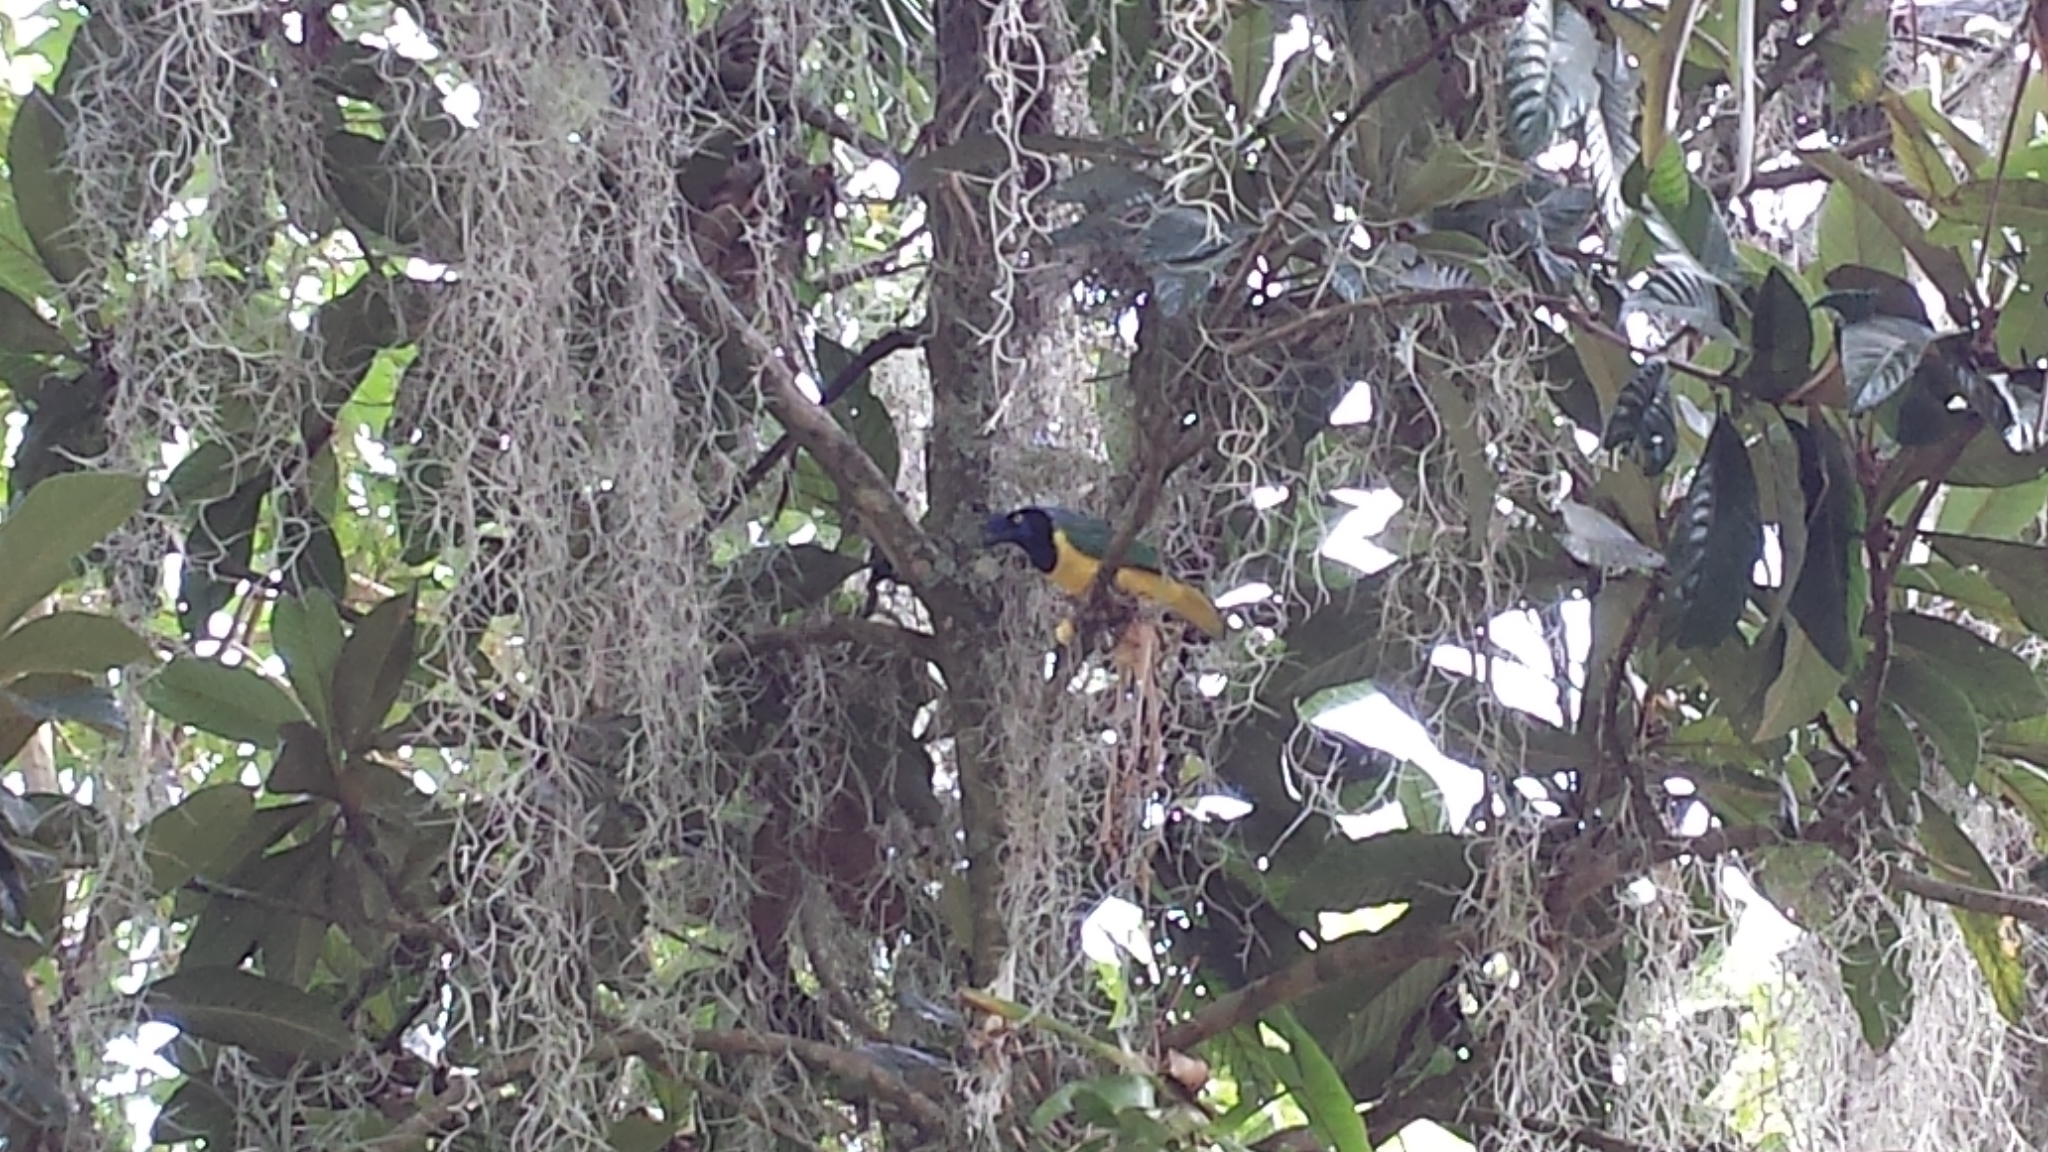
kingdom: Animalia
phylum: Chordata
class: Aves
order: Passeriformes
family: Corvidae
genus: Cyanocorax
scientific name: Cyanocorax yncas
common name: Green jay
